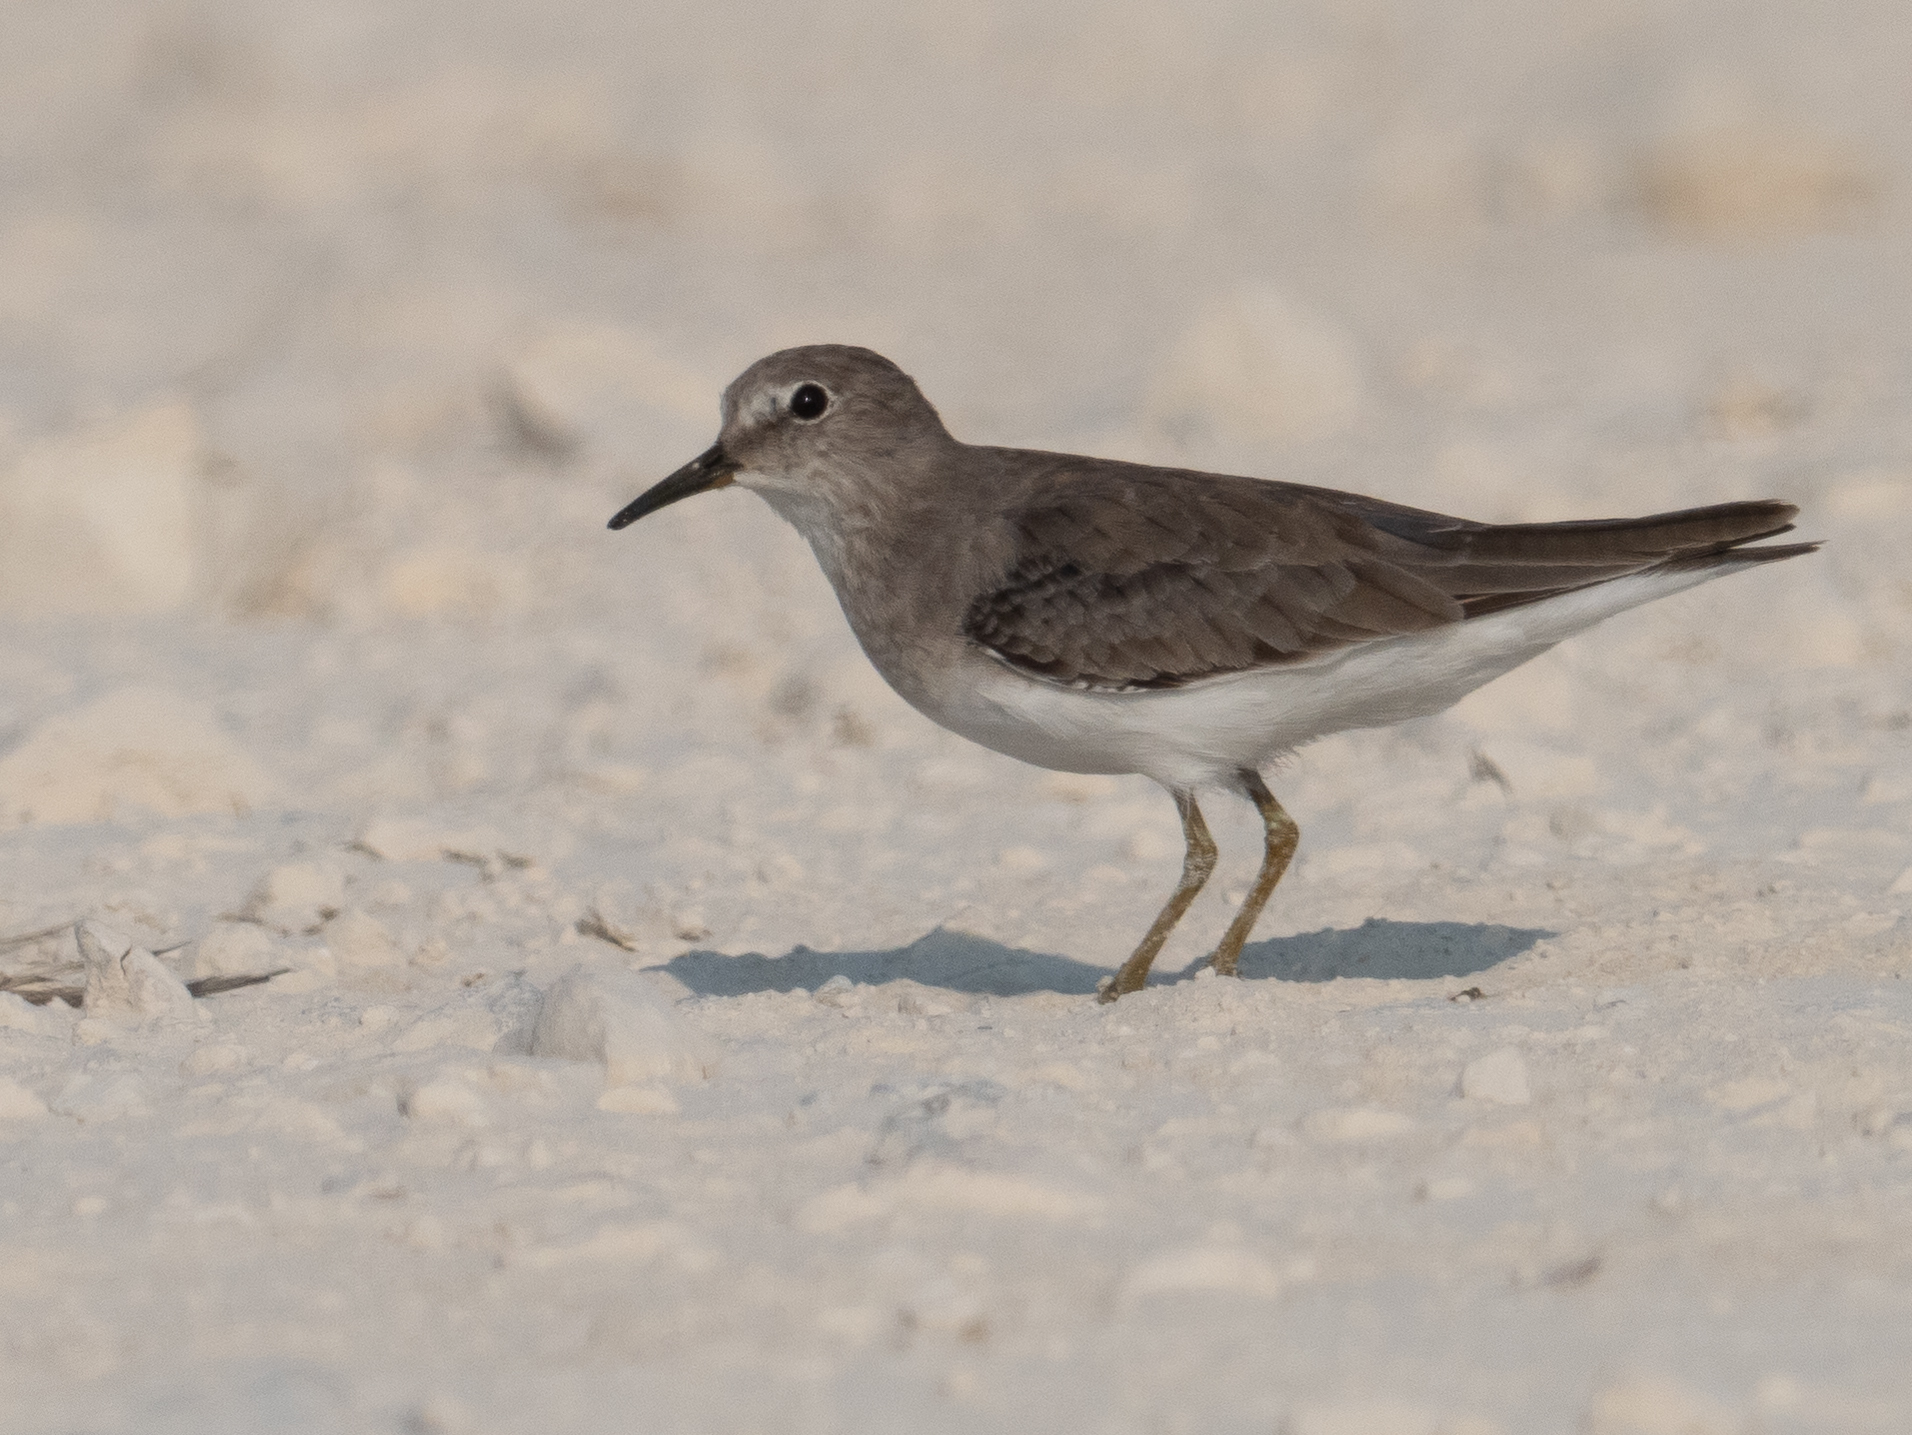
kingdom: Animalia
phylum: Chordata
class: Aves
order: Charadriiformes
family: Scolopacidae
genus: Calidris
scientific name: Calidris temminckii
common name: Temminck's stint
